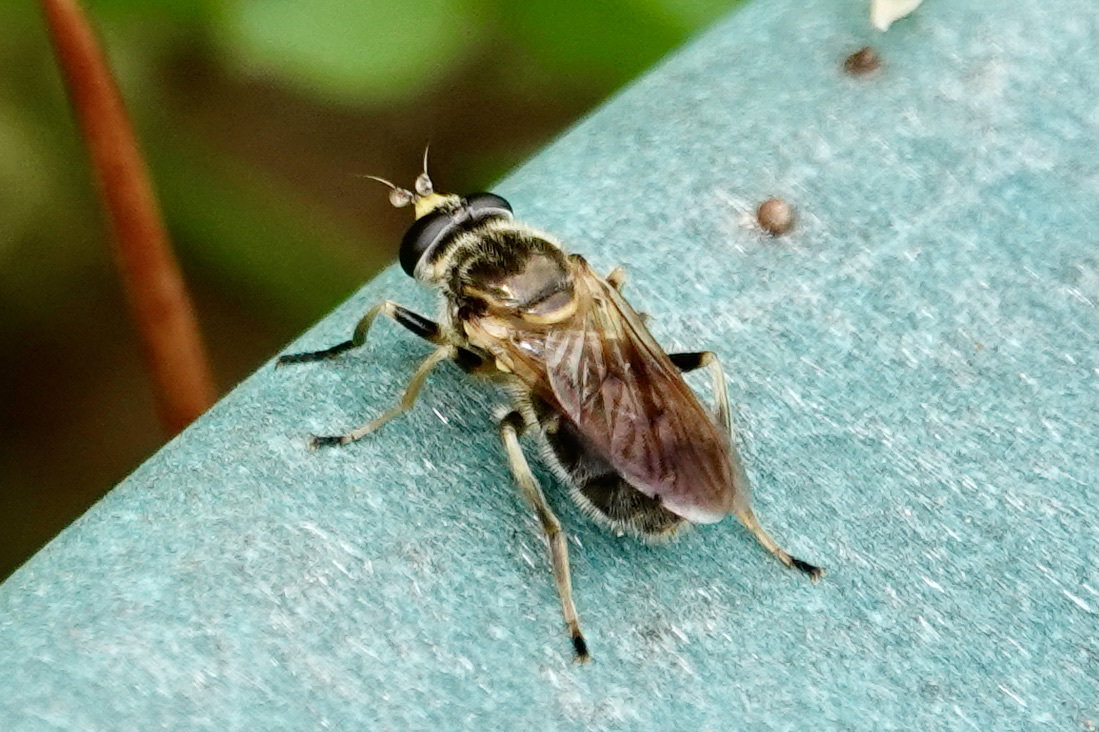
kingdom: Animalia
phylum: Arthropoda
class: Insecta
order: Diptera
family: Syrphidae
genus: Blera
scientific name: Blera pictipes
